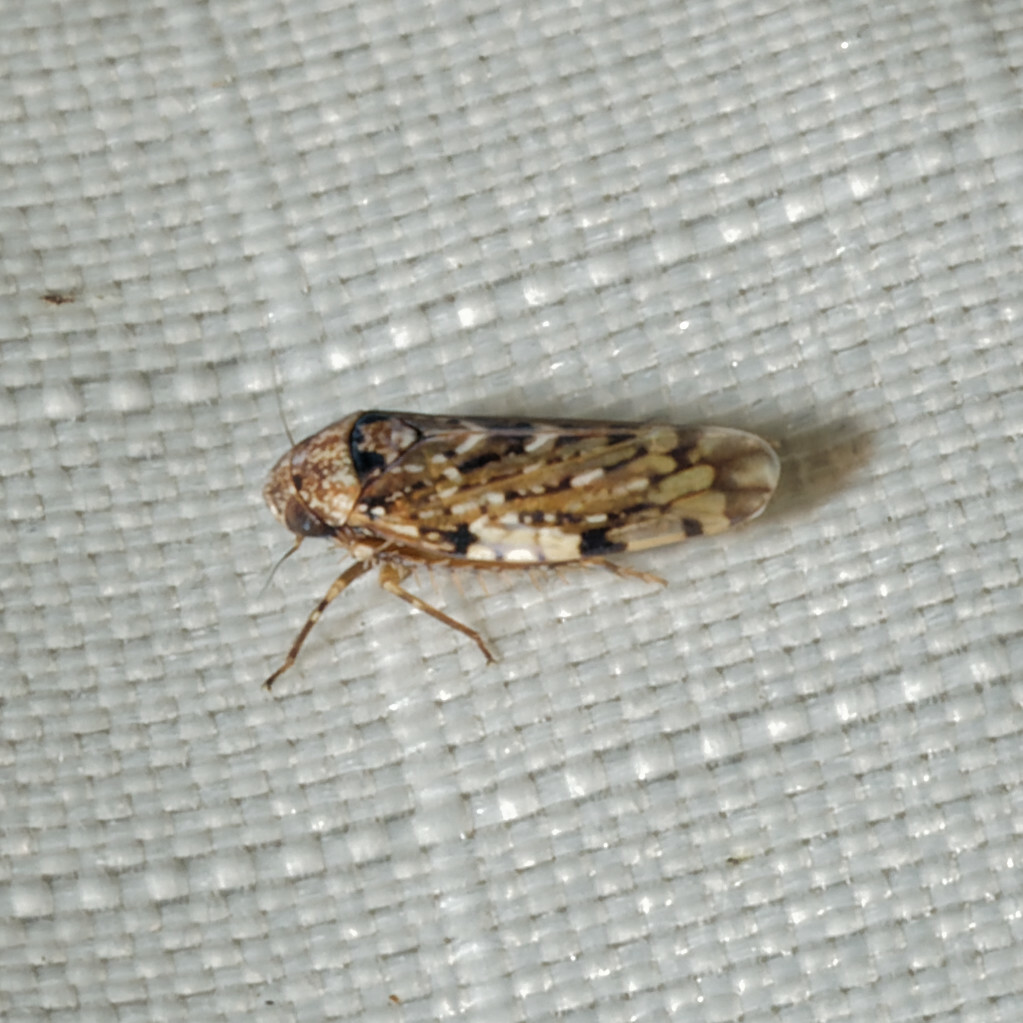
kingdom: Animalia
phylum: Arthropoda
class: Insecta
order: Hemiptera
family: Cicadellidae
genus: Xestocephalus
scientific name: Xestocephalus tessellatus
